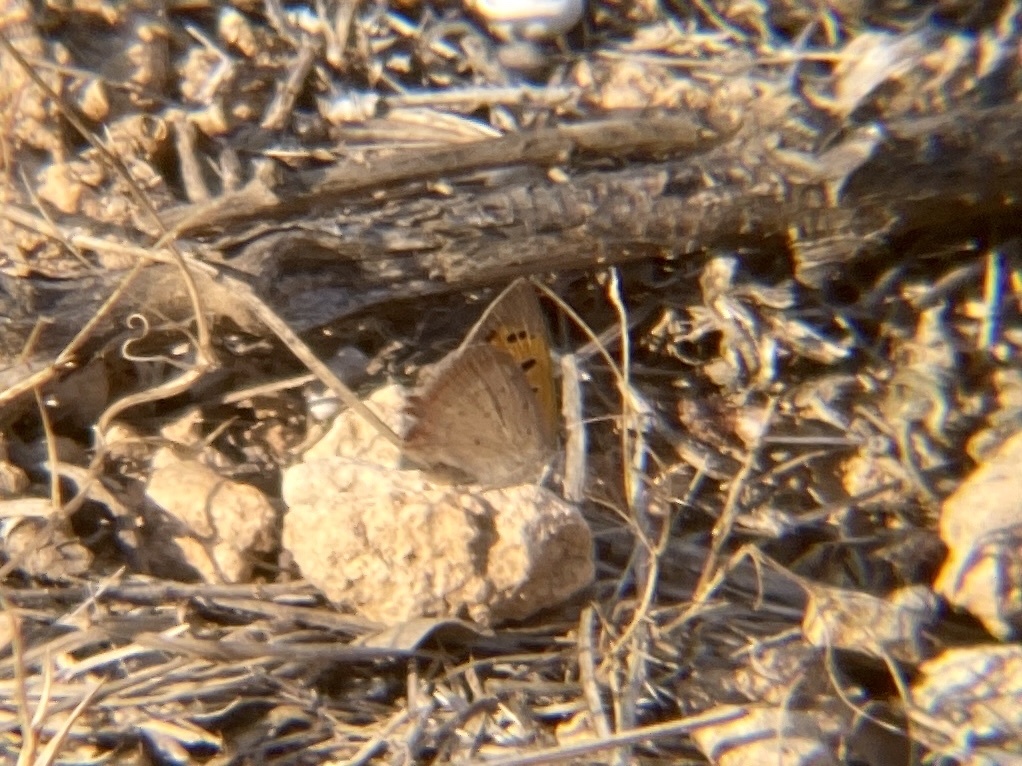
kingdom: Animalia
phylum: Arthropoda
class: Insecta
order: Lepidoptera
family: Lycaenidae
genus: Lycaena
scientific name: Lycaena phlaeas
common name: Small copper
